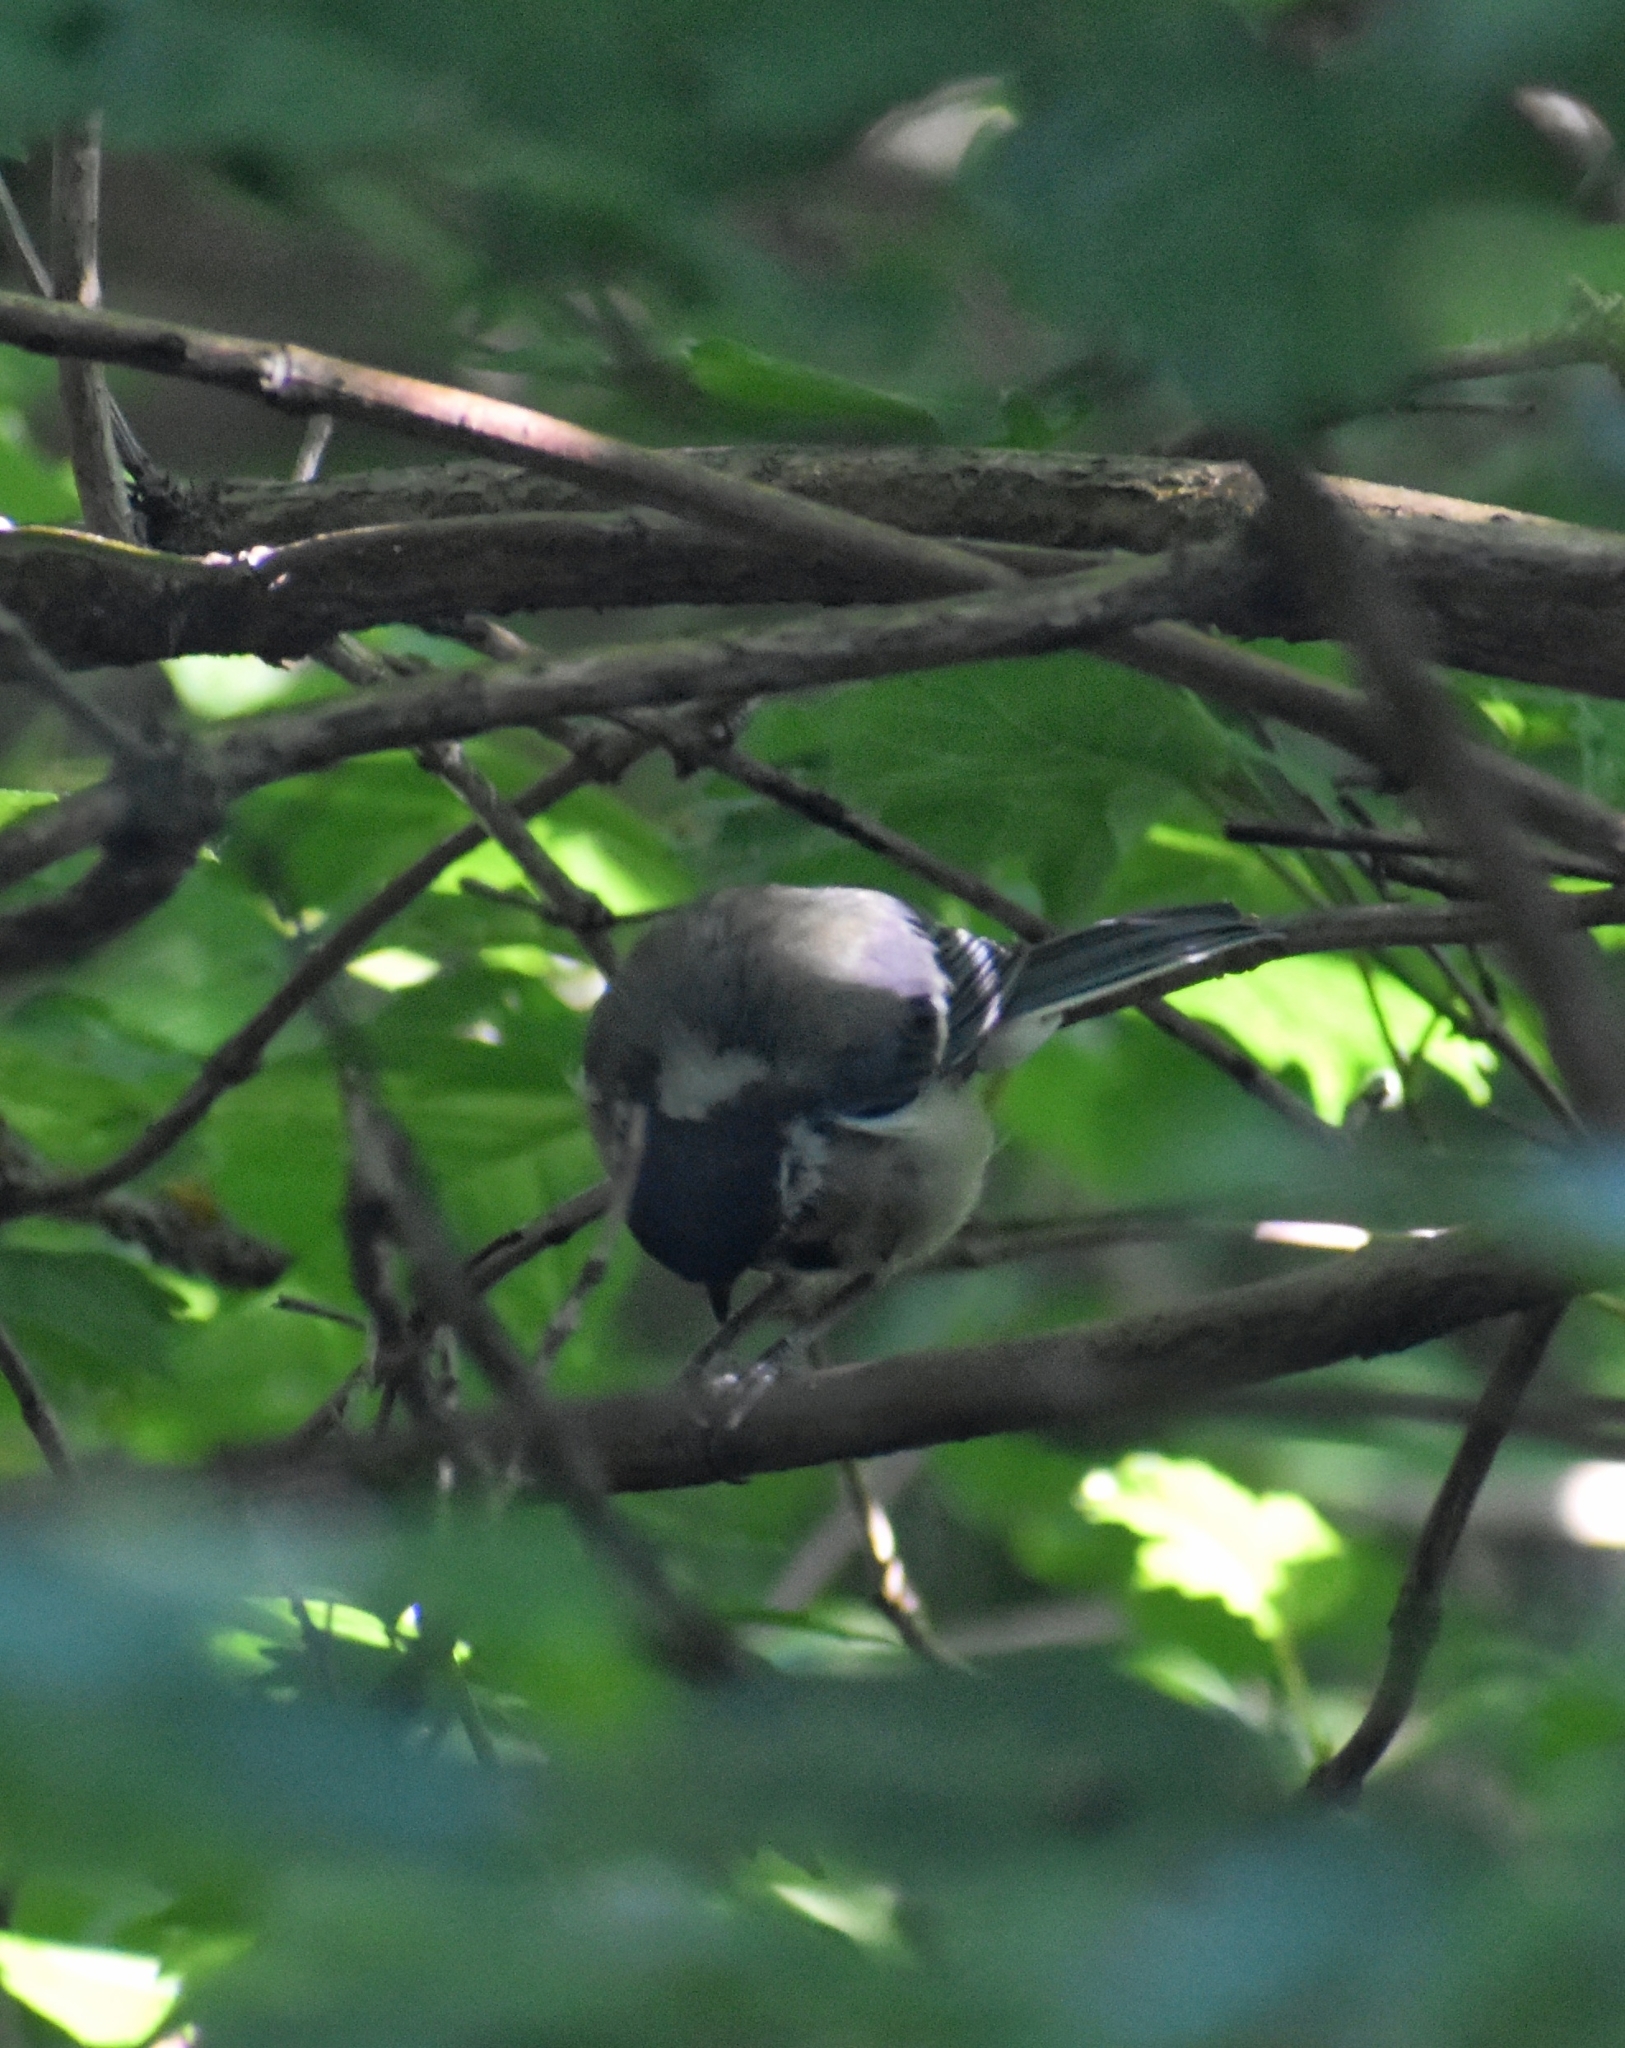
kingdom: Animalia
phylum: Chordata
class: Aves
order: Passeriformes
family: Paridae
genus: Parus
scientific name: Parus major
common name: Great tit
